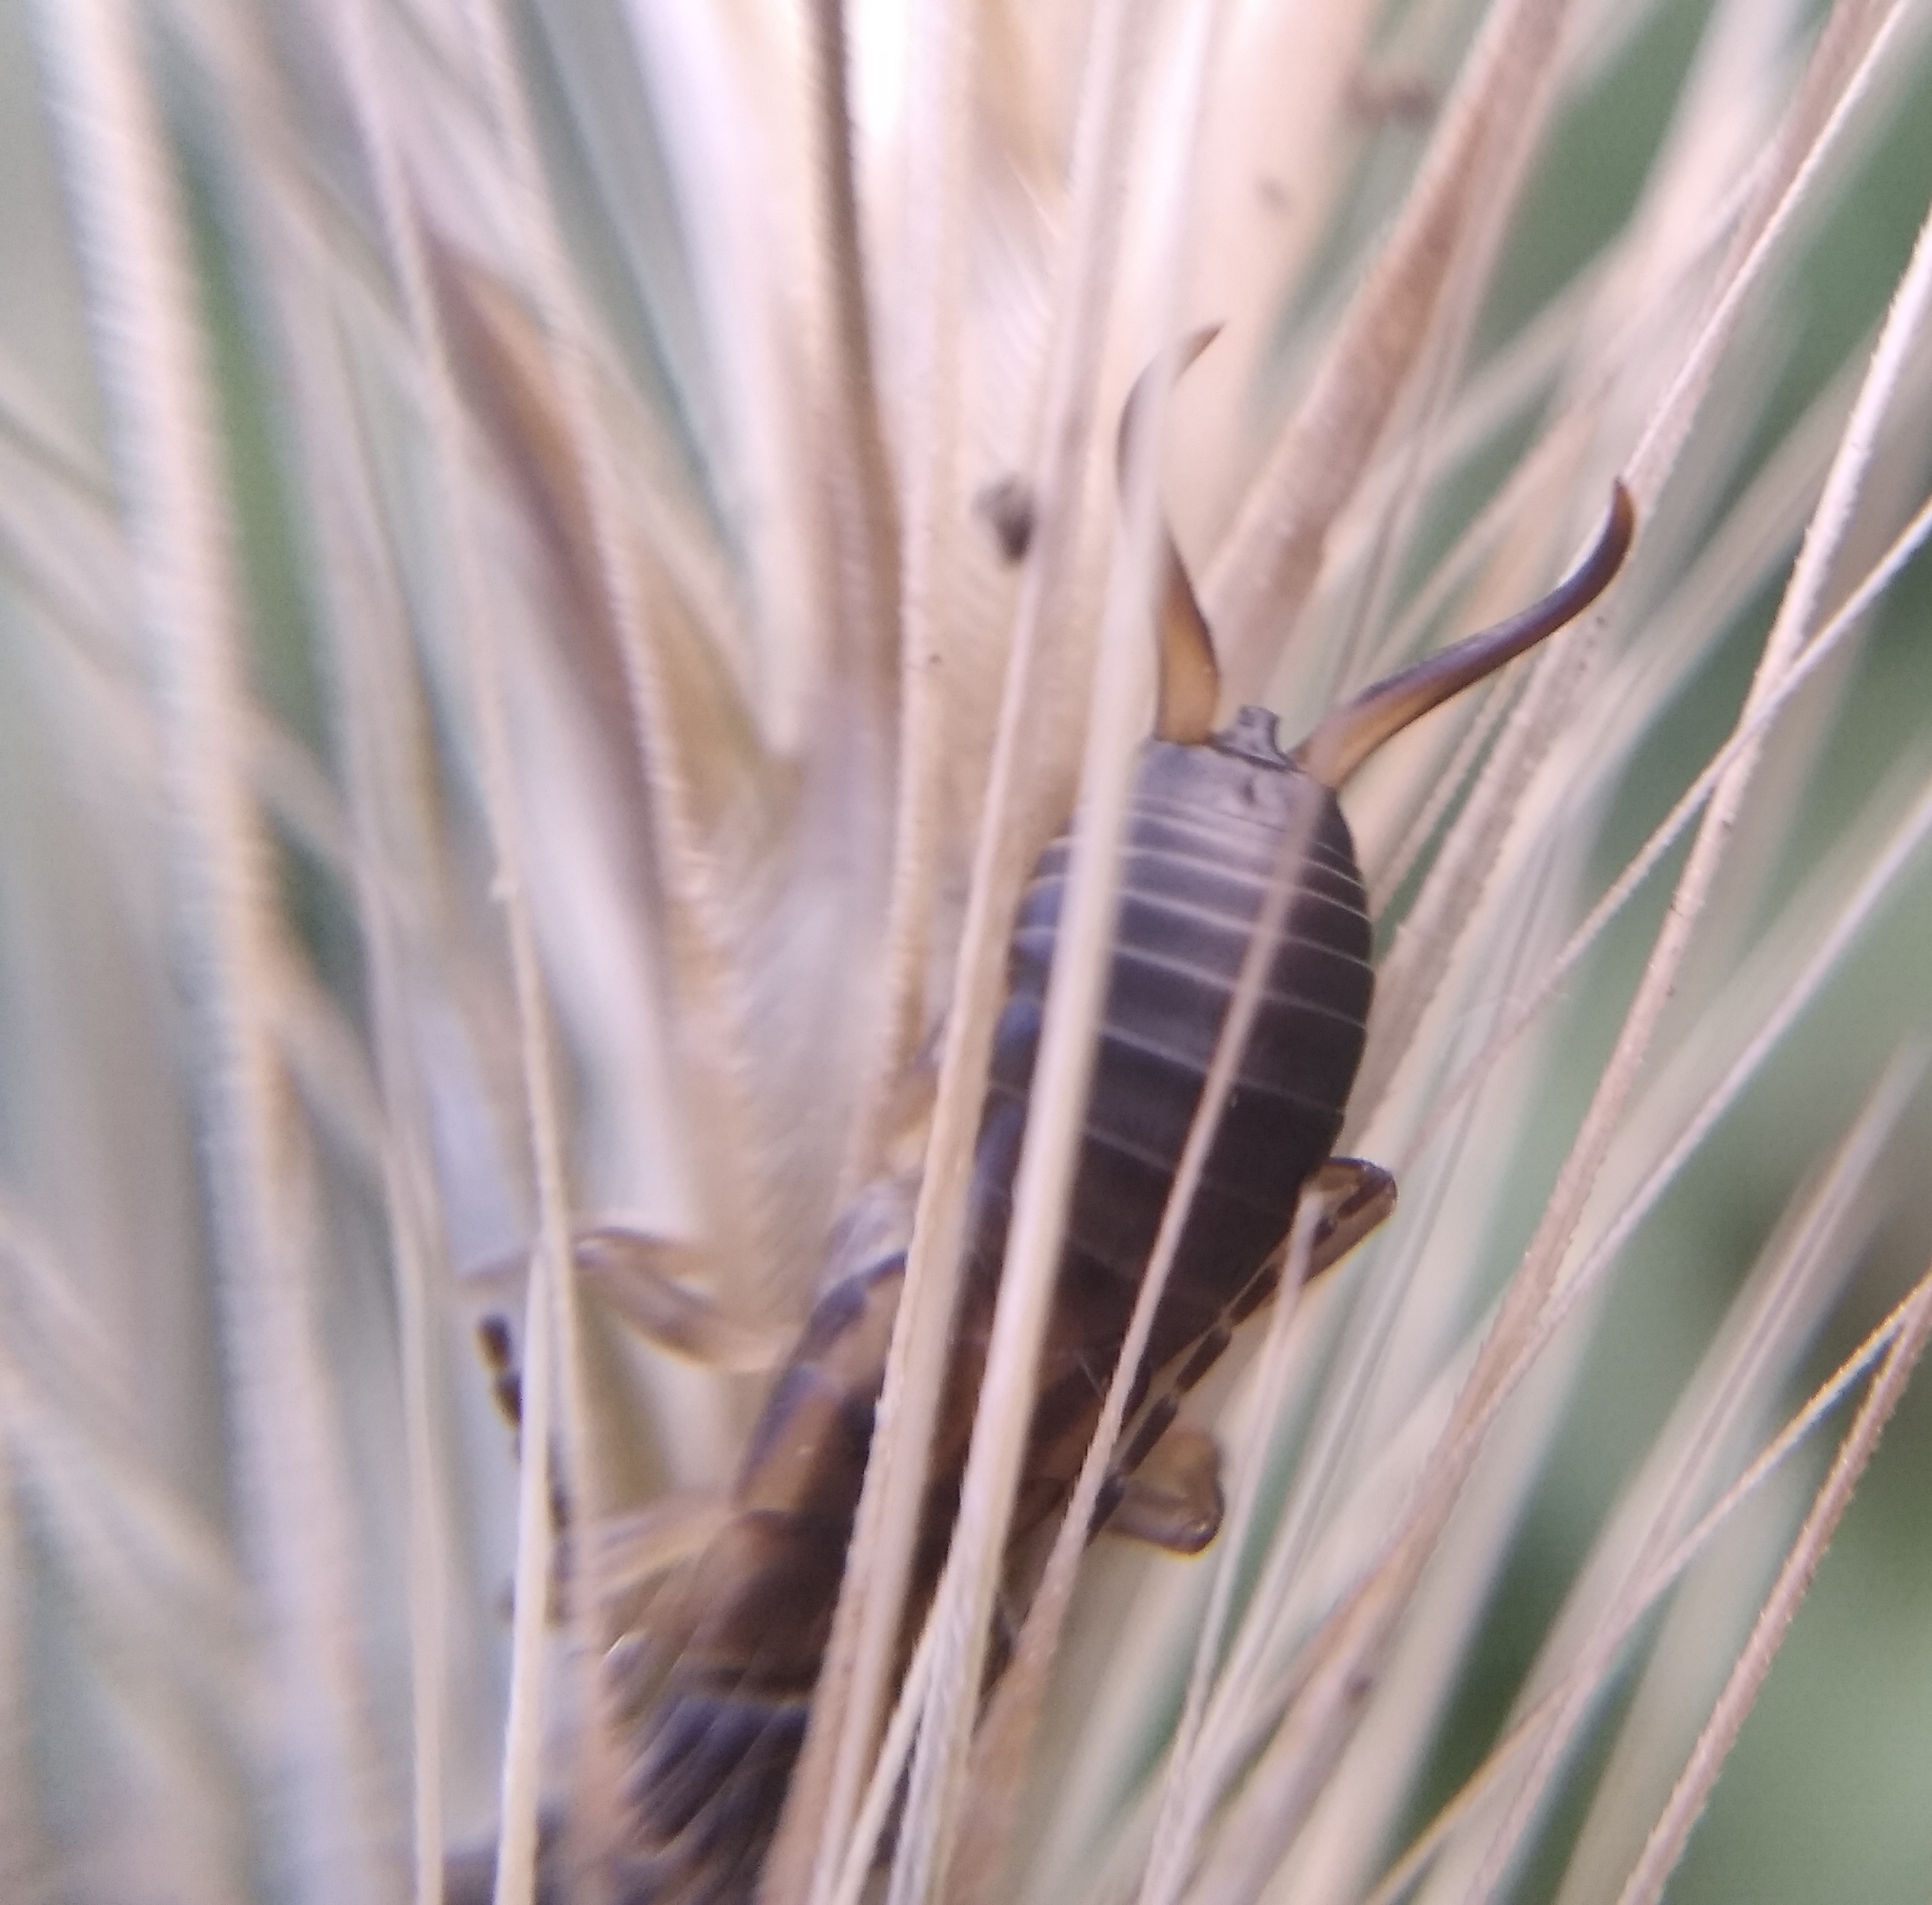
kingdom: Animalia
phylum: Arthropoda
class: Insecta
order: Dermaptera
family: Forficulidae
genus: Forficula
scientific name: Forficula
